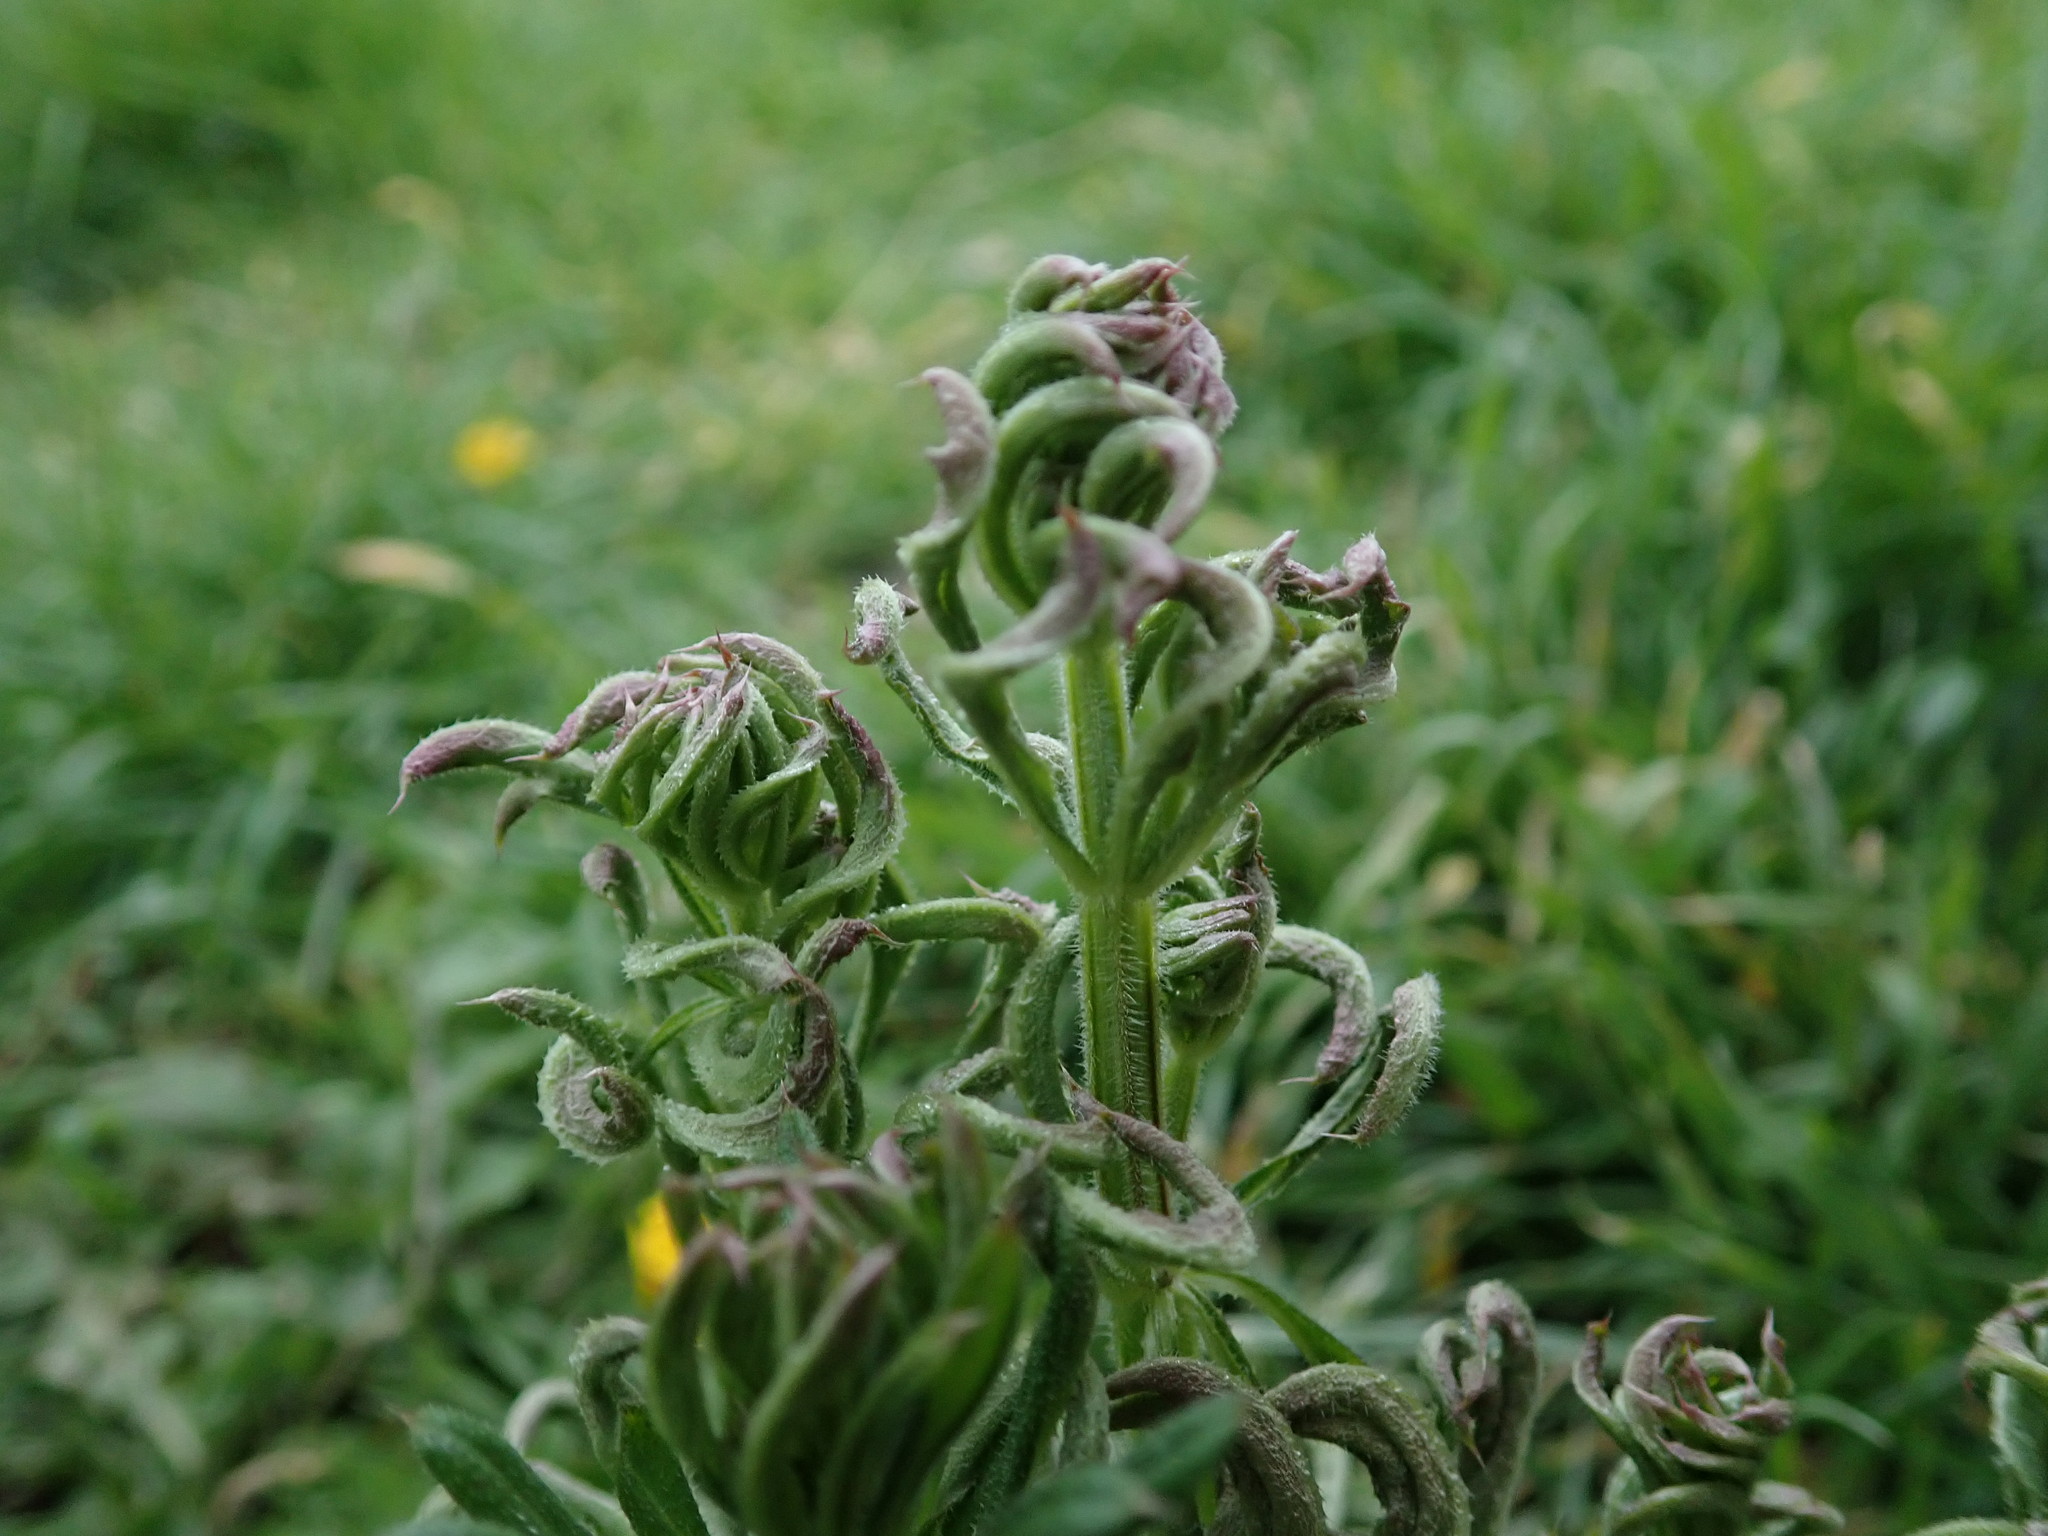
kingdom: Animalia
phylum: Arthropoda
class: Arachnida
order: Trombidiformes
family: Eriophyidae
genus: Cecidophyes
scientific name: Cecidophyes rouhollahi
